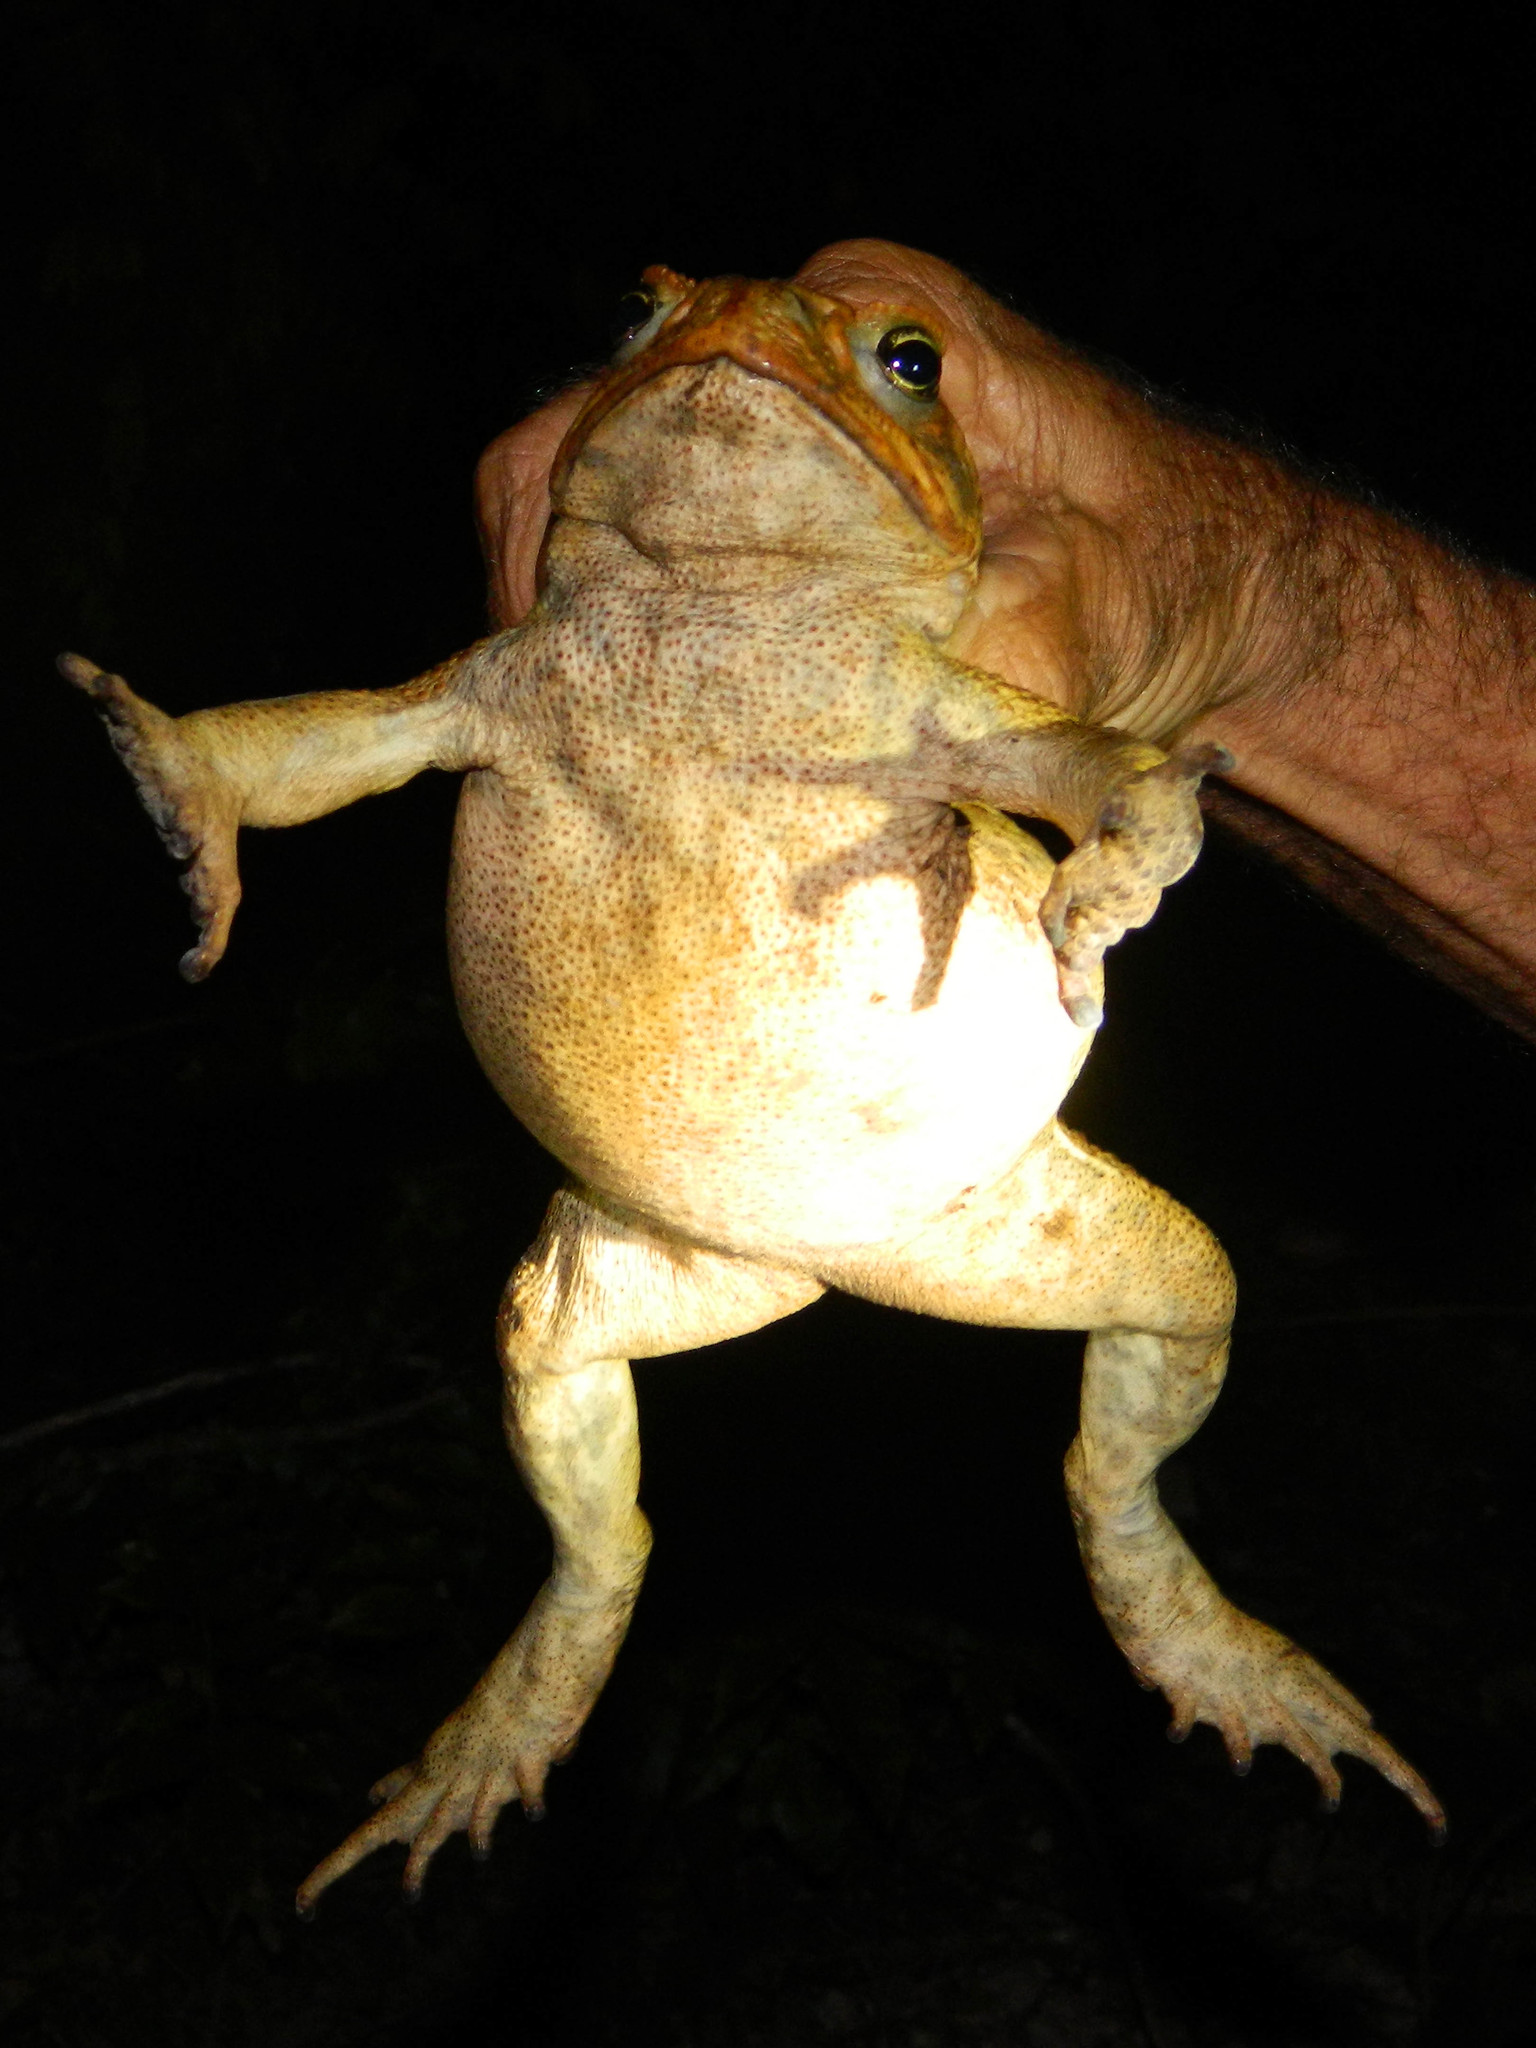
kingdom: Animalia
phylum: Chordata
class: Amphibia
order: Anura
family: Bufonidae
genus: Rhinella
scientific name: Rhinella marina
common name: Cane toad
